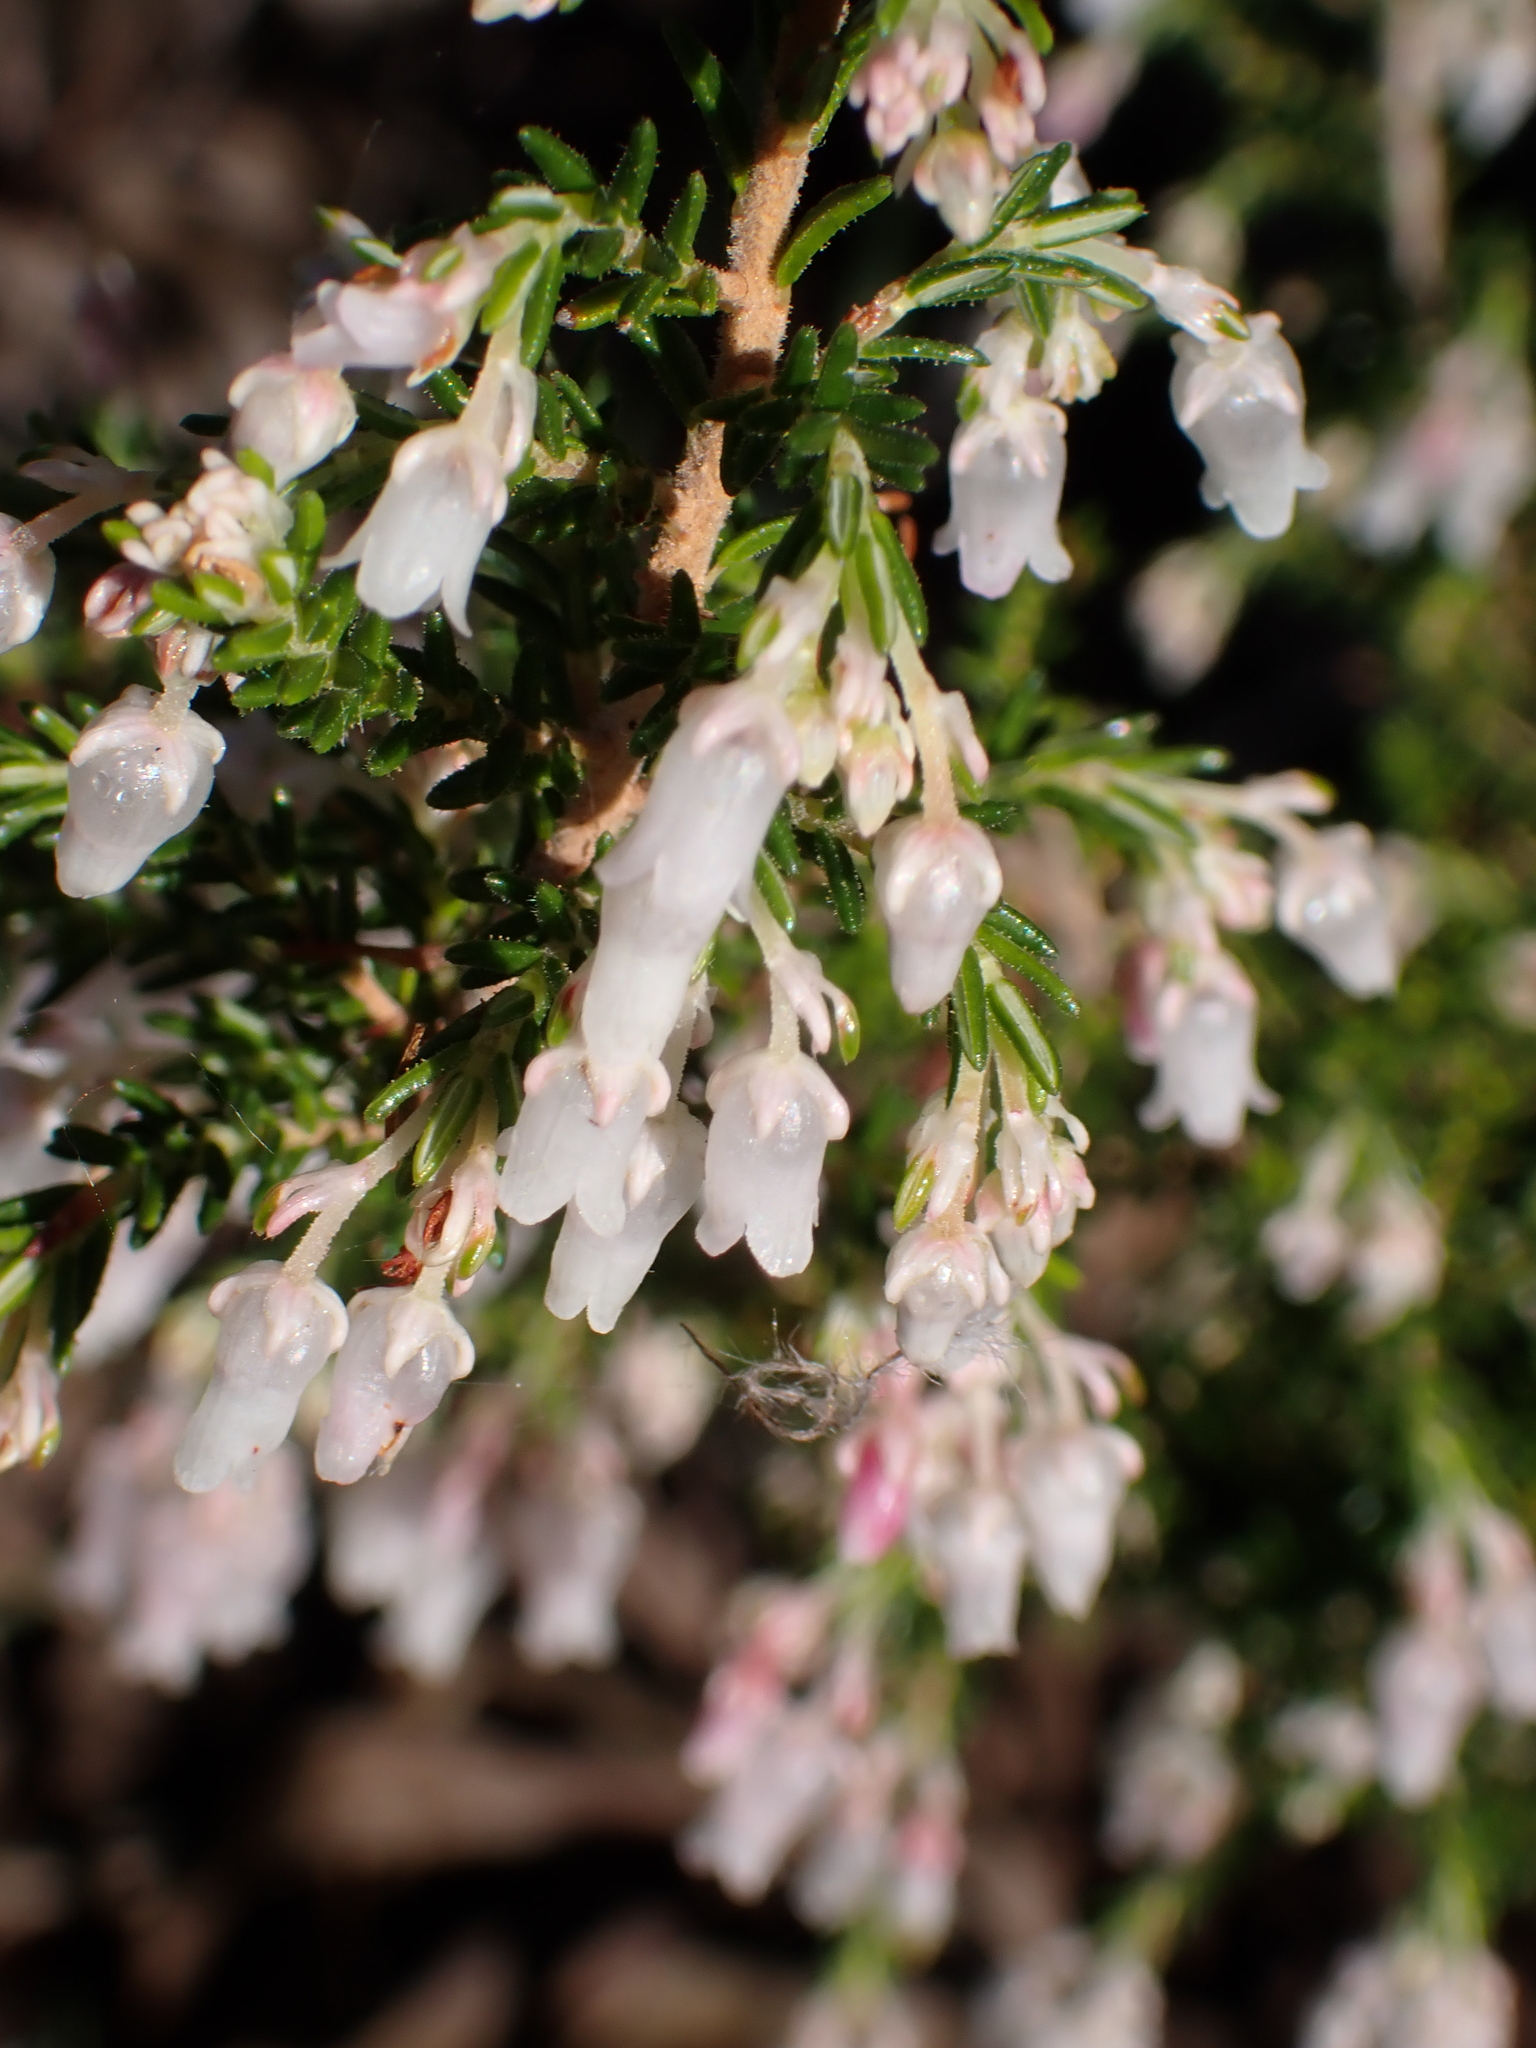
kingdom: Plantae
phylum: Tracheophyta
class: Magnoliopsida
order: Ericales
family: Ericaceae
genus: Erica
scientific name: Erica glomiflora
